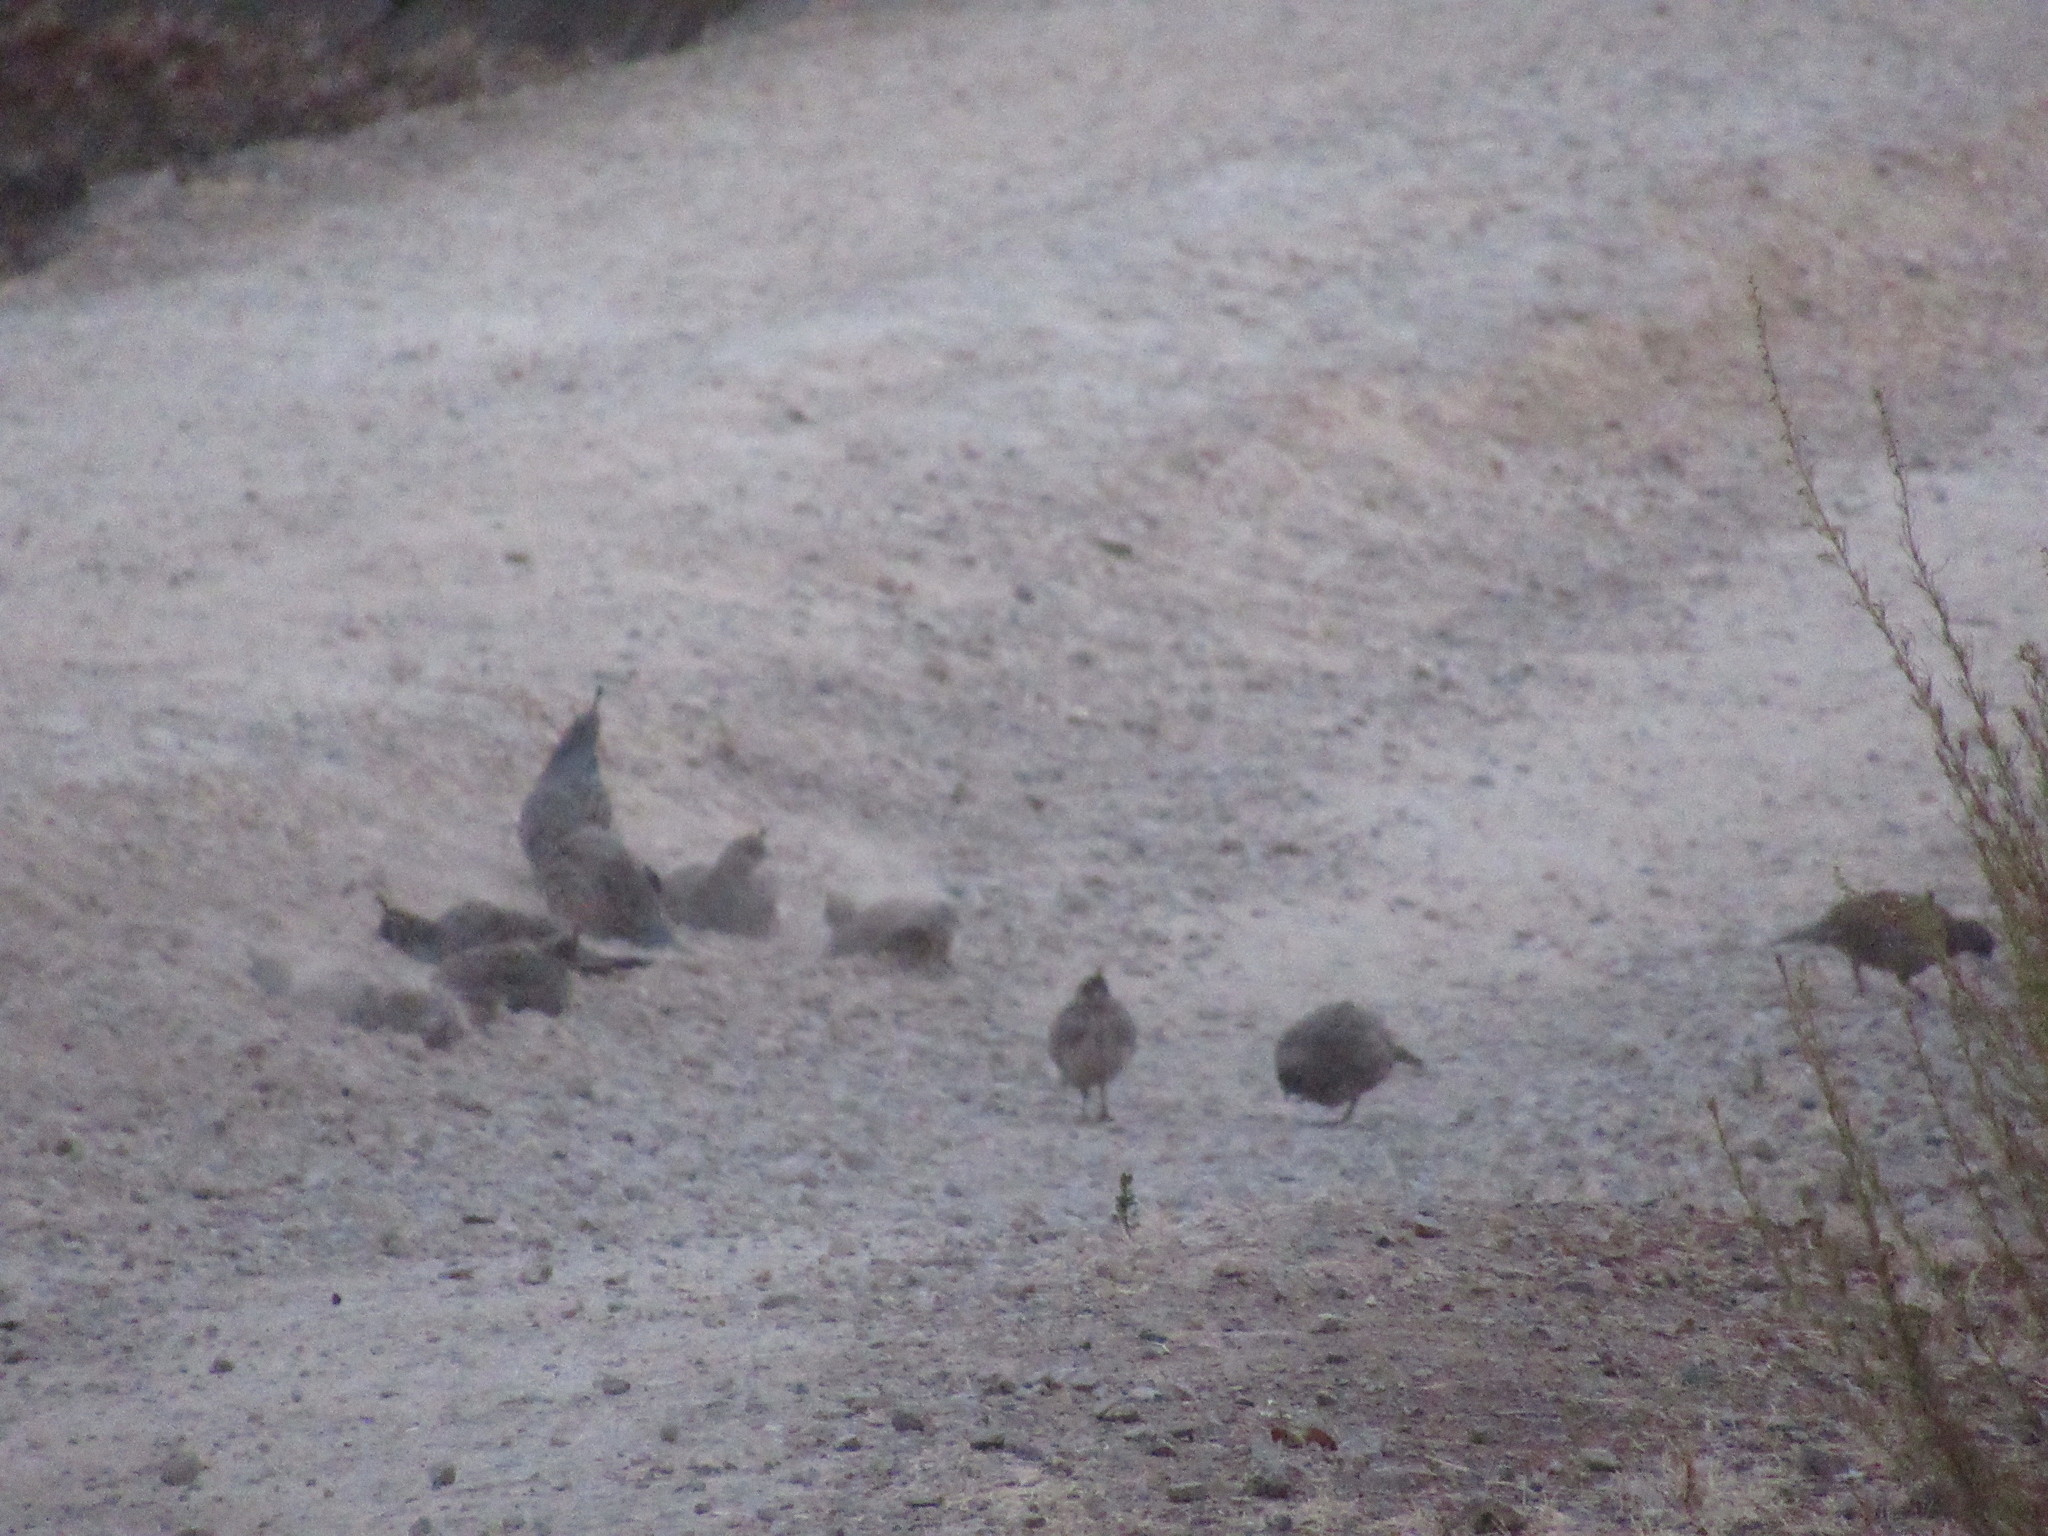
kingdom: Animalia
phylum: Chordata
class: Aves
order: Galliformes
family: Odontophoridae
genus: Callipepla
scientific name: Callipepla californica
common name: California quail
